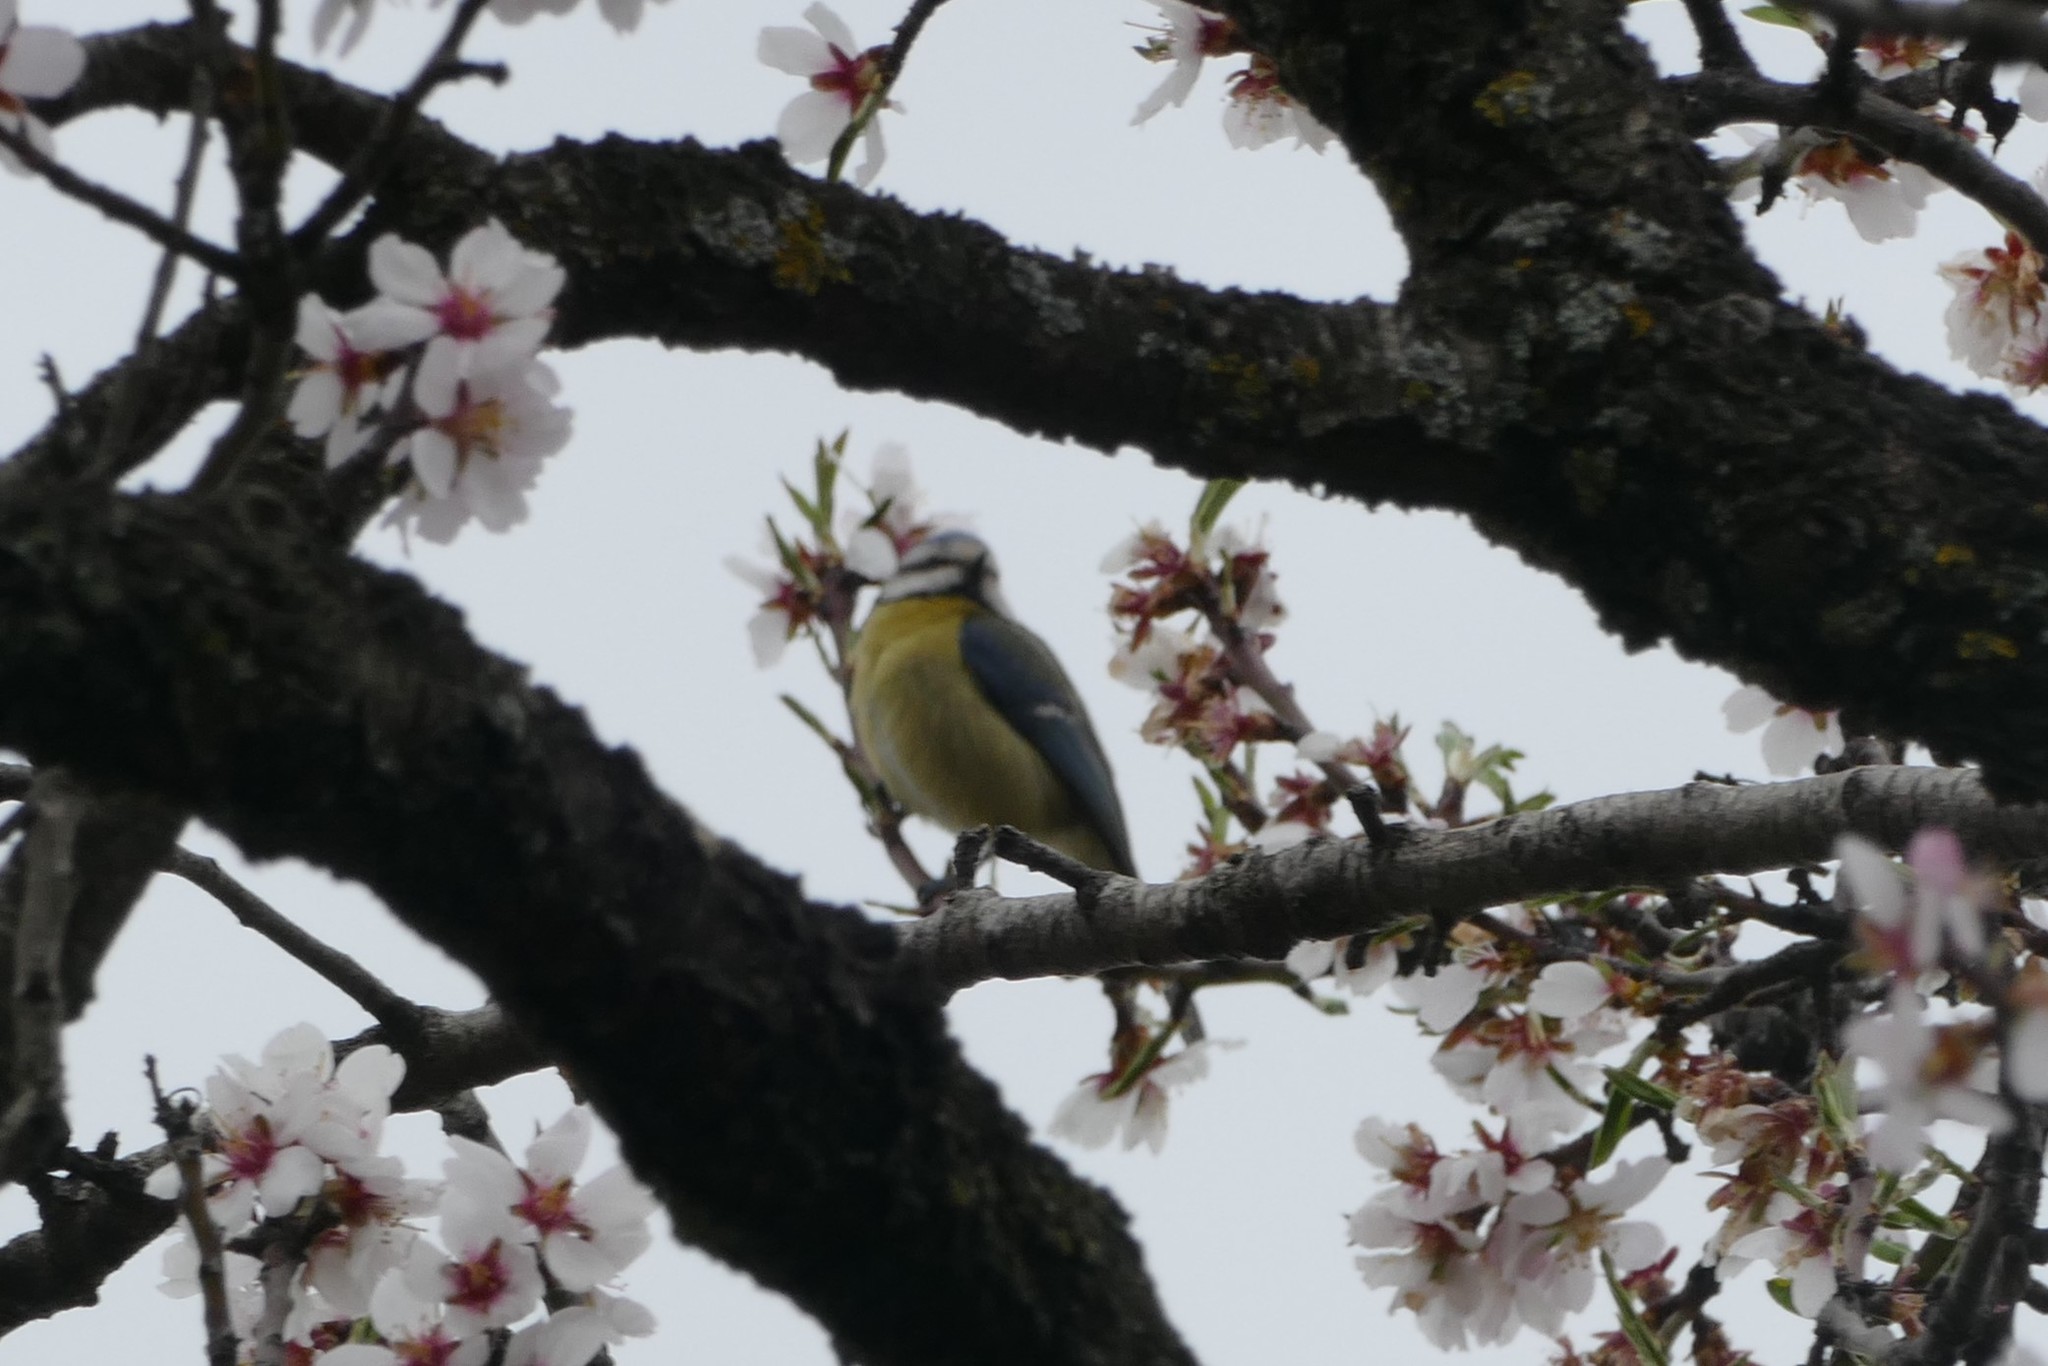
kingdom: Animalia
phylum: Chordata
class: Aves
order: Passeriformes
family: Paridae
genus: Cyanistes
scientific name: Cyanistes caeruleus
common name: Eurasian blue tit
